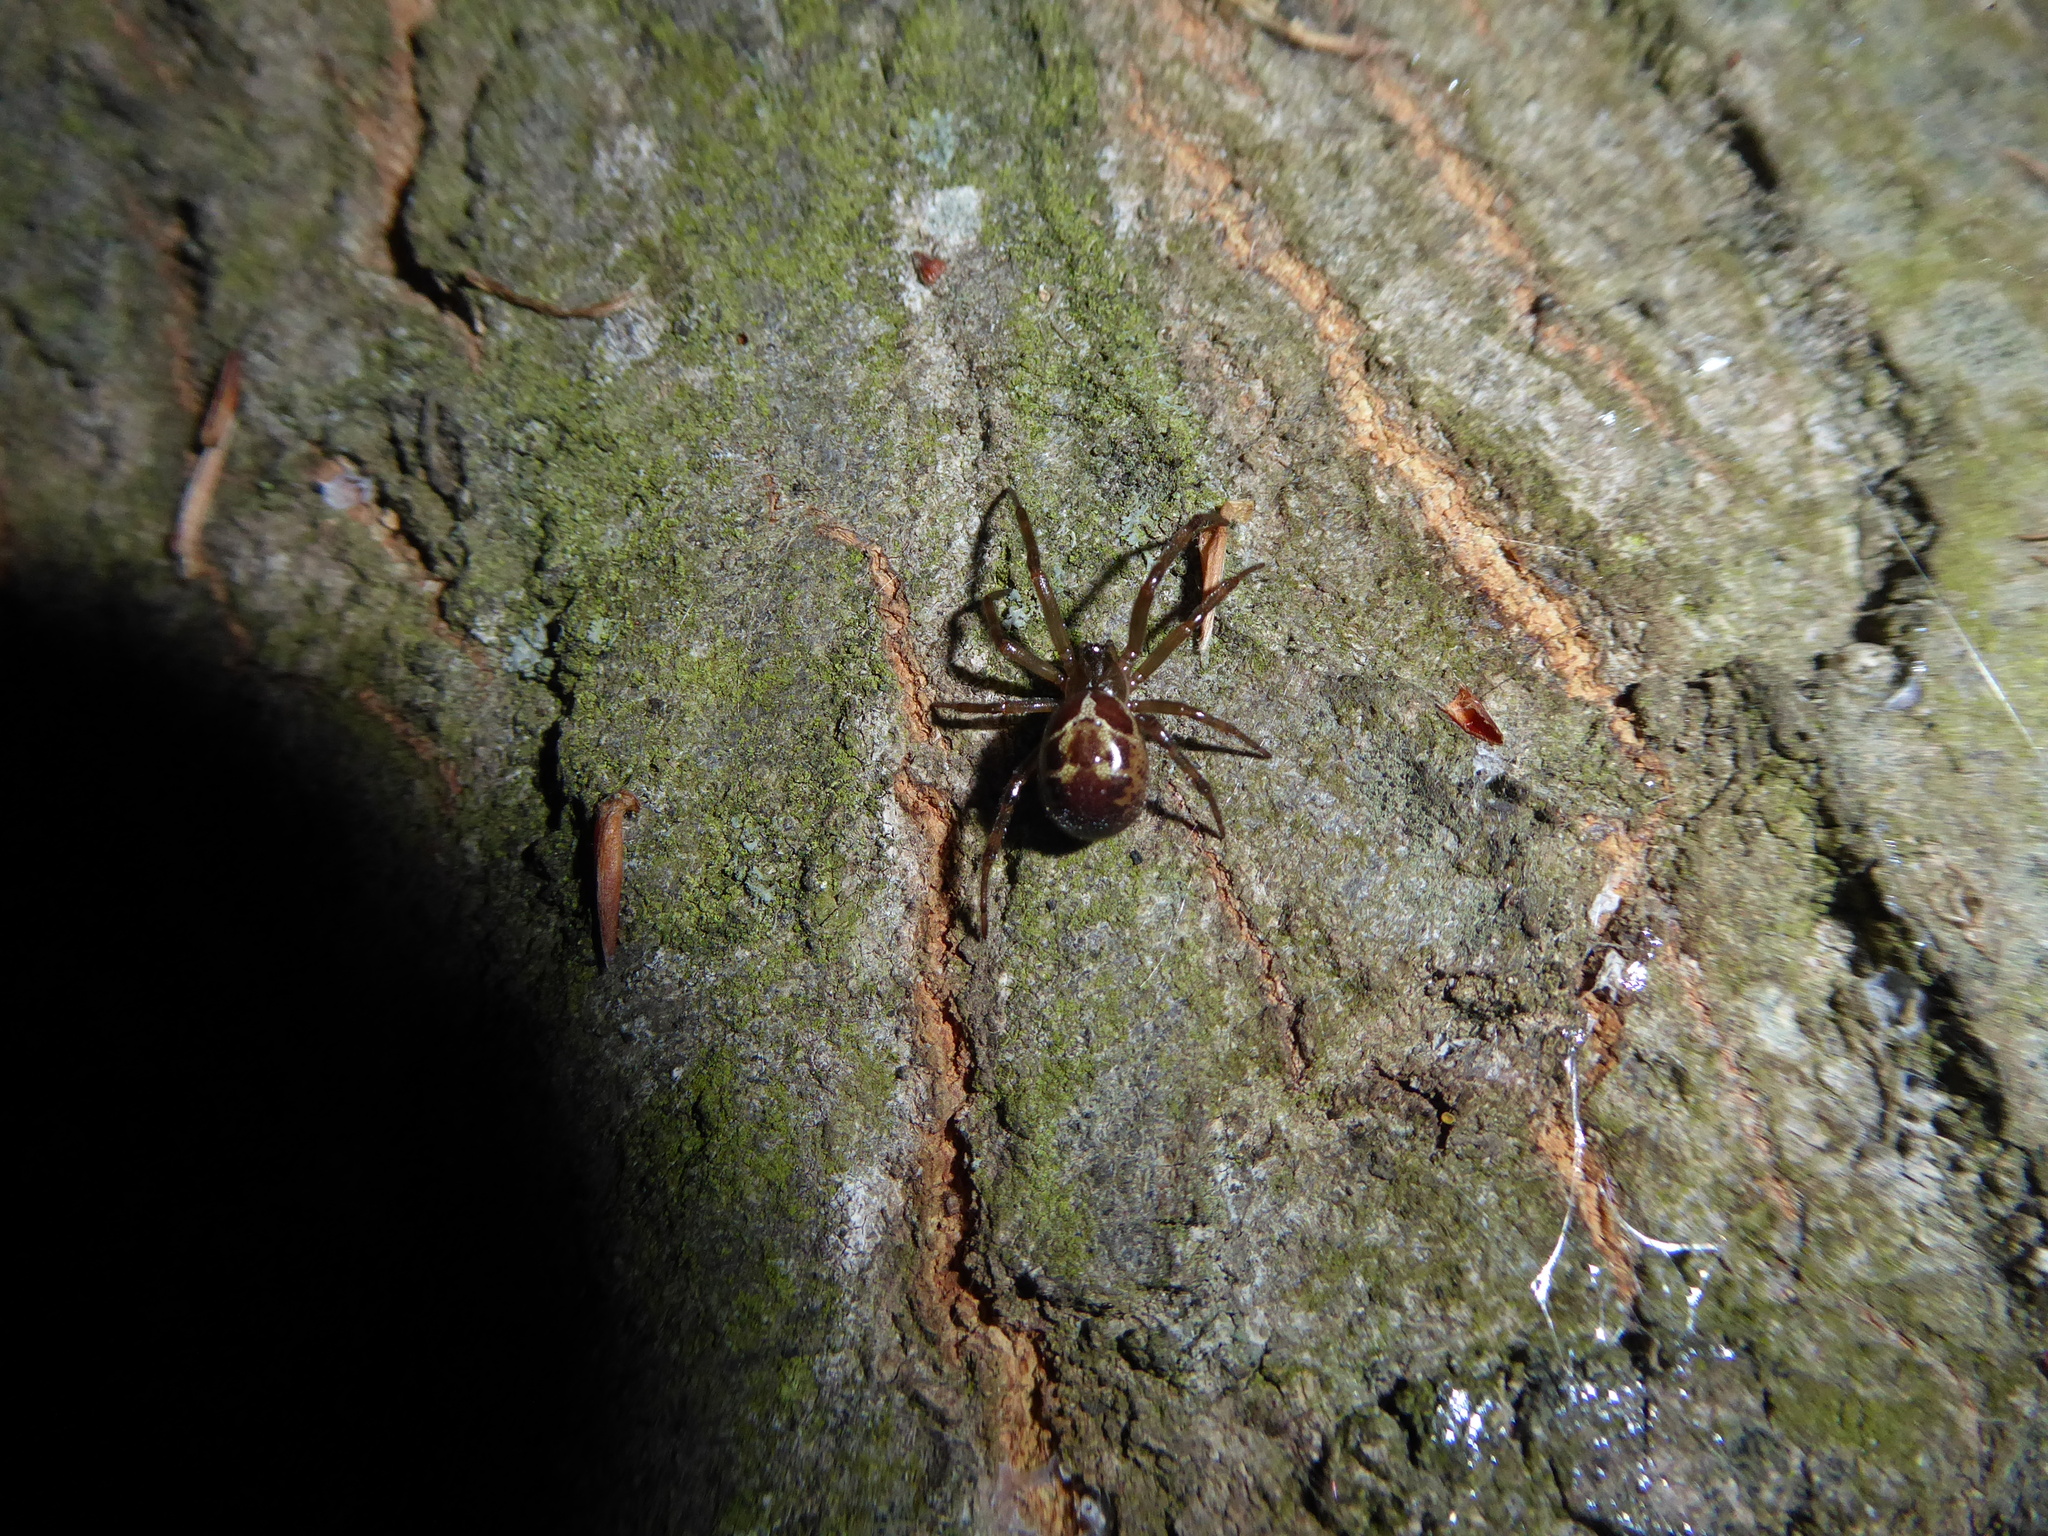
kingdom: Animalia
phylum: Arthropoda
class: Arachnida
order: Araneae
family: Theridiidae
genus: Steatoda
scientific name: Steatoda nobilis
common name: Cobweb weaver
